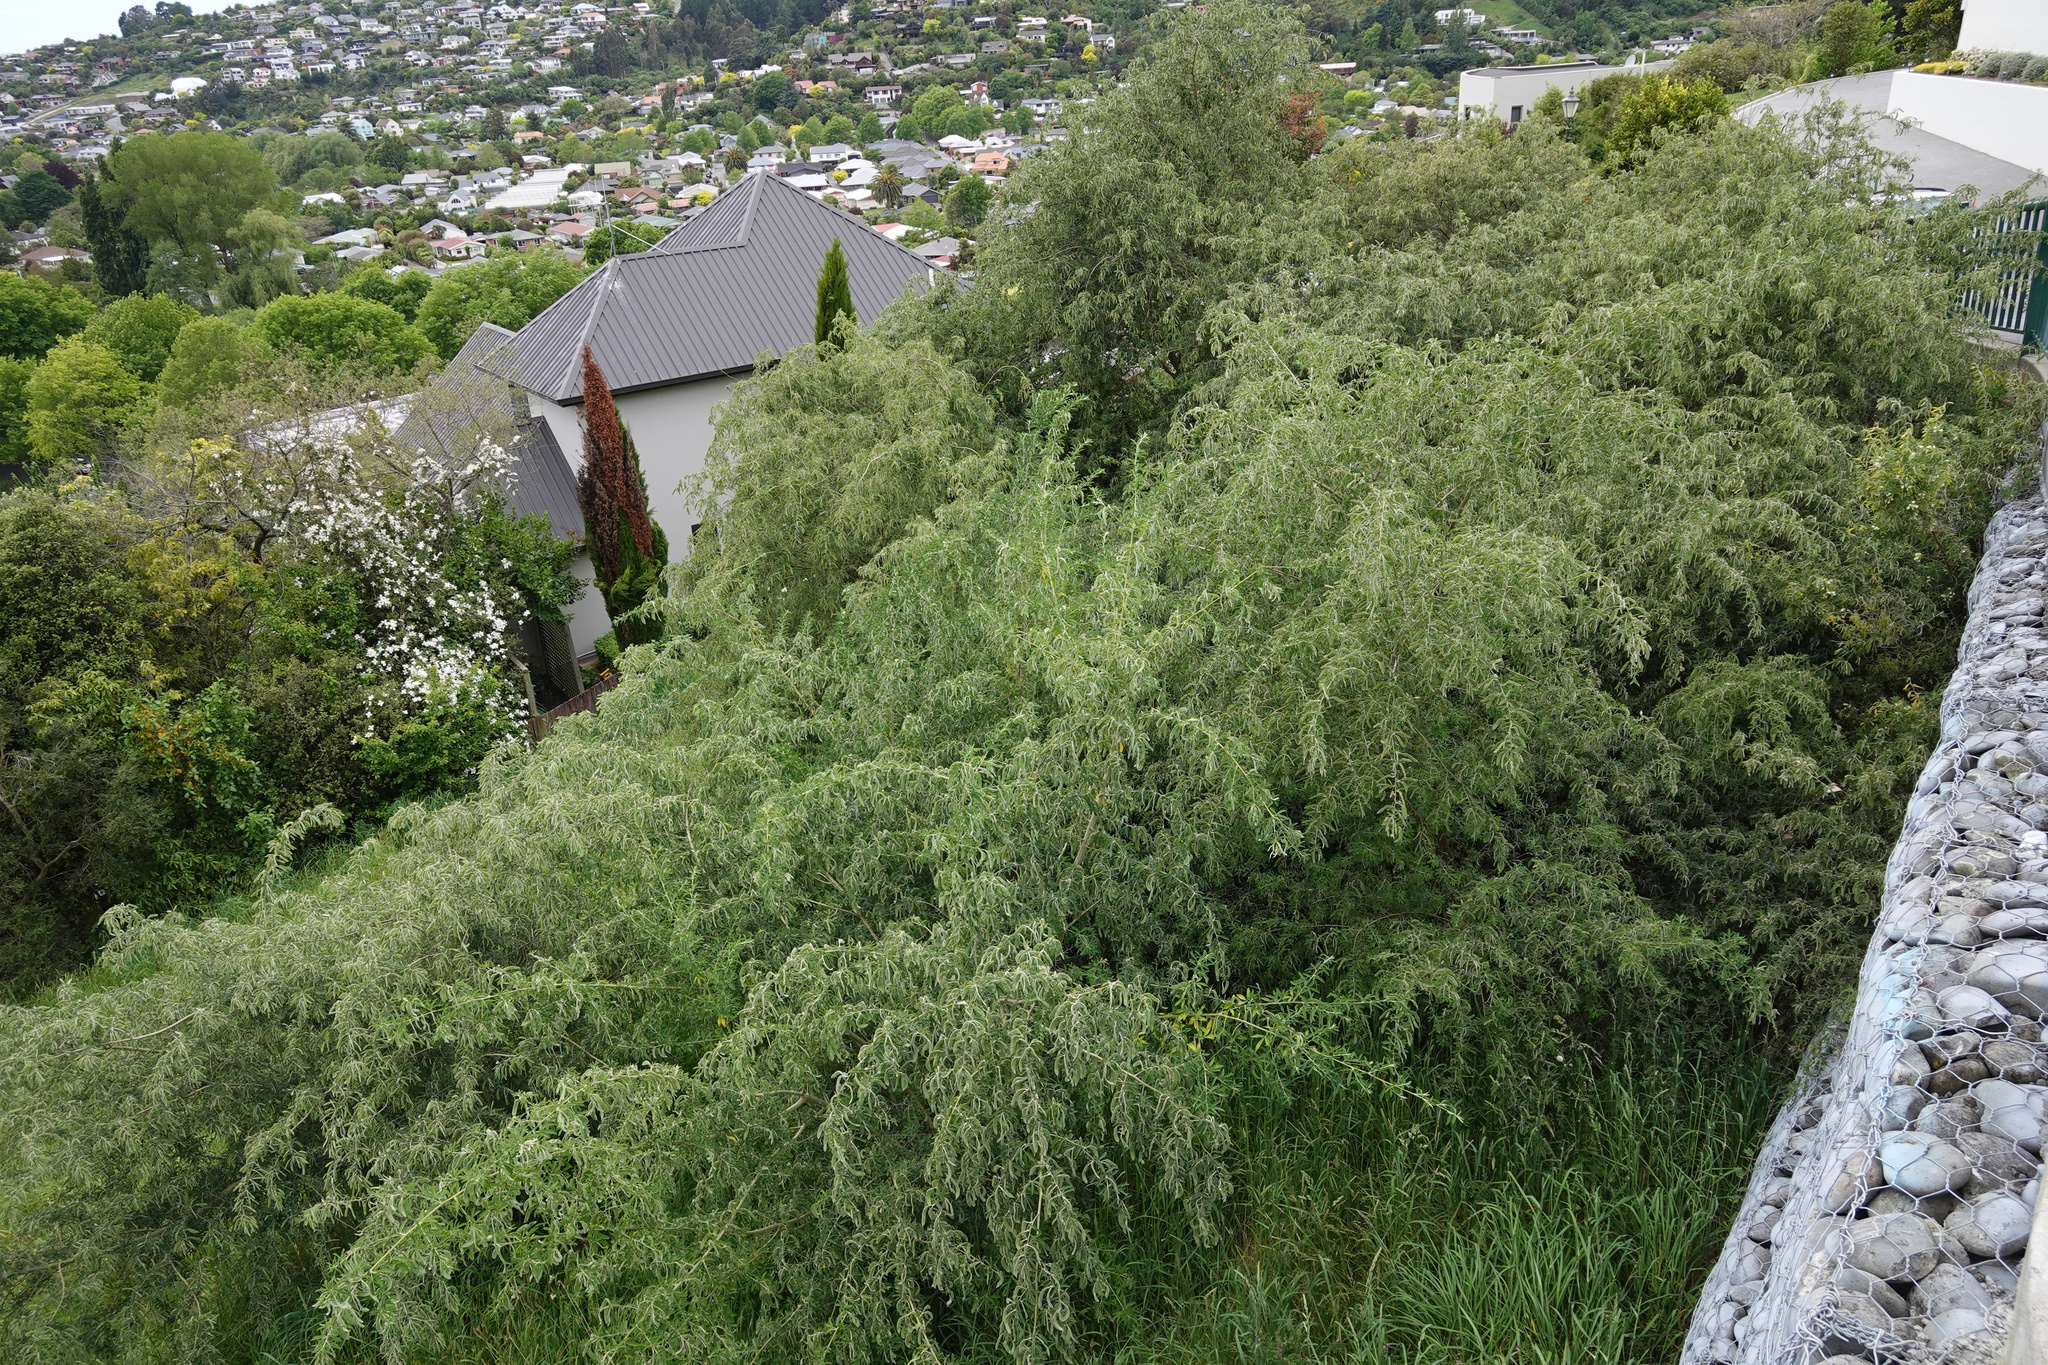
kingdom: Plantae
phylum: Tracheophyta
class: Magnoliopsida
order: Fabales
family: Fabaceae
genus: Chamaecytisus
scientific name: Chamaecytisus prolifer
